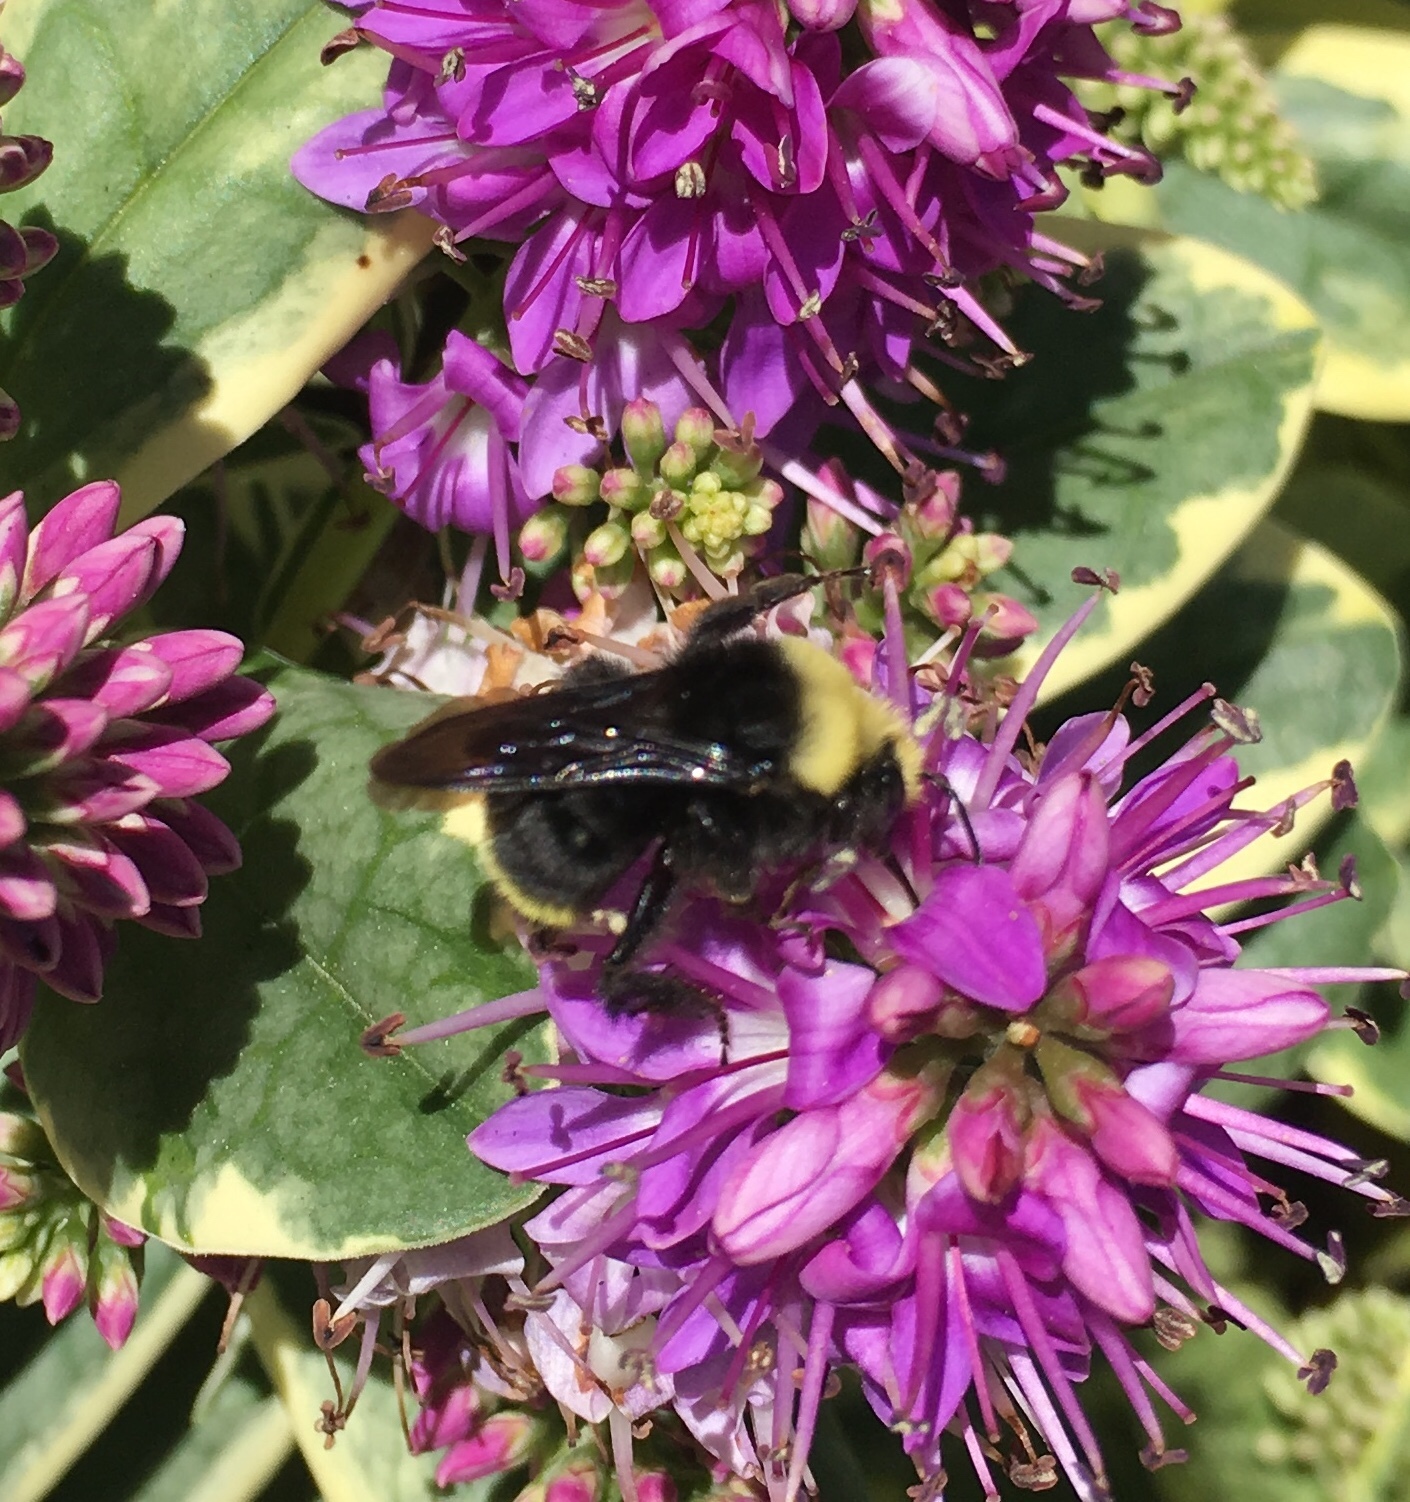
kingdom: Animalia
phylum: Arthropoda
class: Insecta
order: Hymenoptera
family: Apidae
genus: Pyrobombus
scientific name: Pyrobombus
